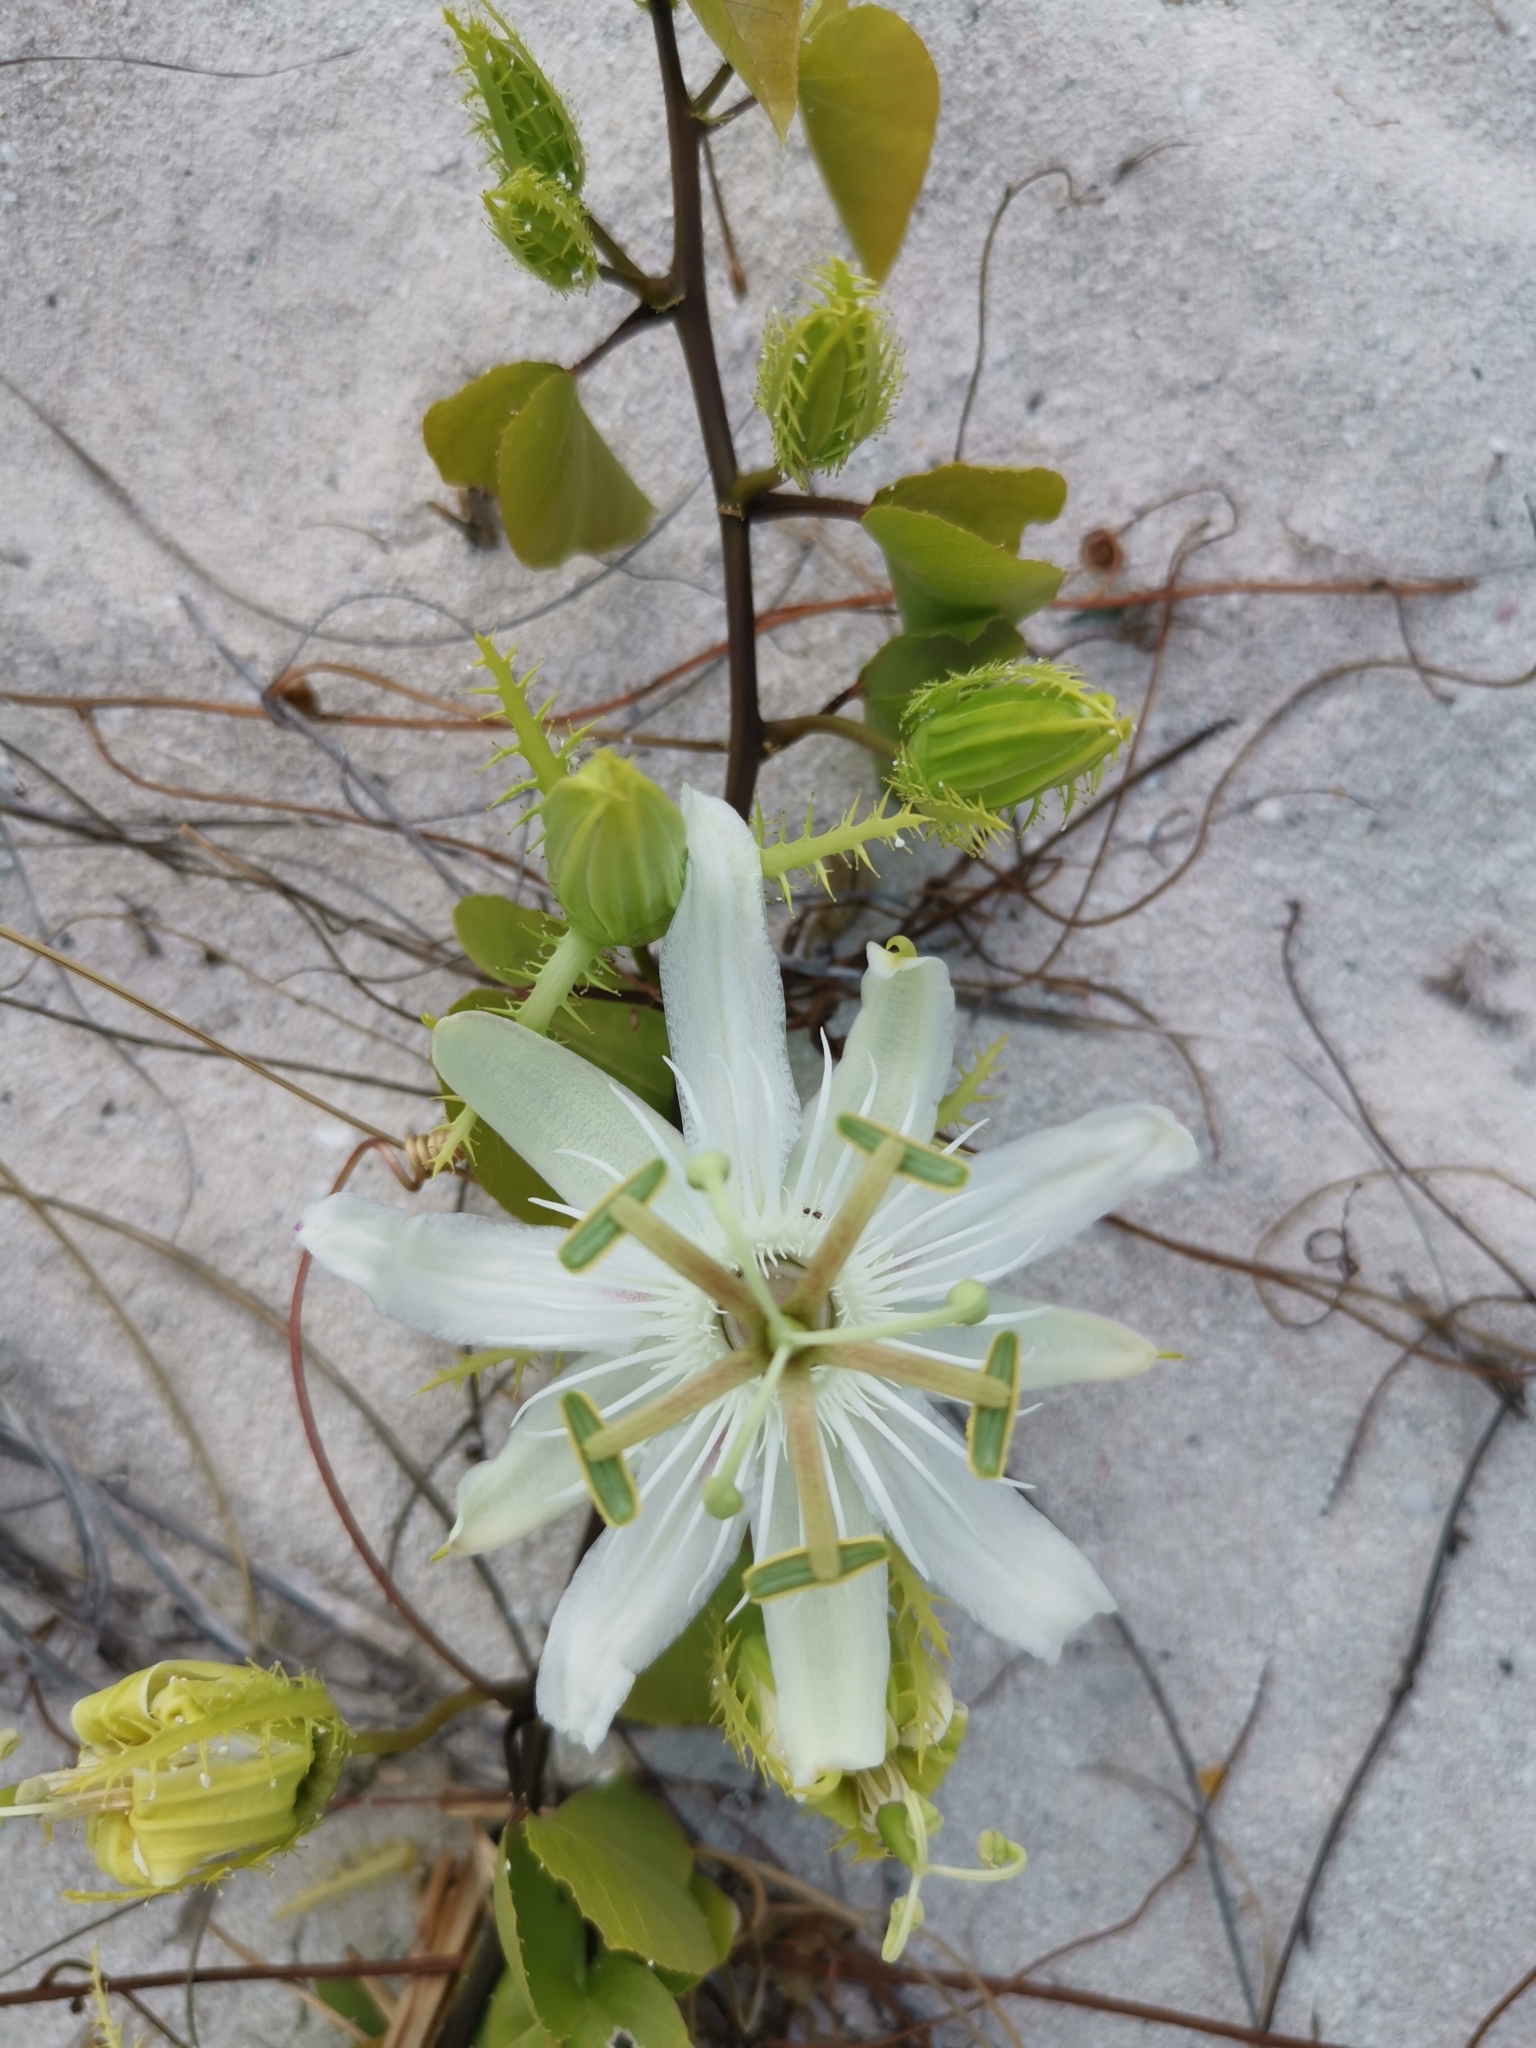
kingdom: Plantae
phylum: Tracheophyta
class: Magnoliopsida
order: Malpighiales
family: Passifloraceae
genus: Passiflora
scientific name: Passiflora pectinata
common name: White passionflower
